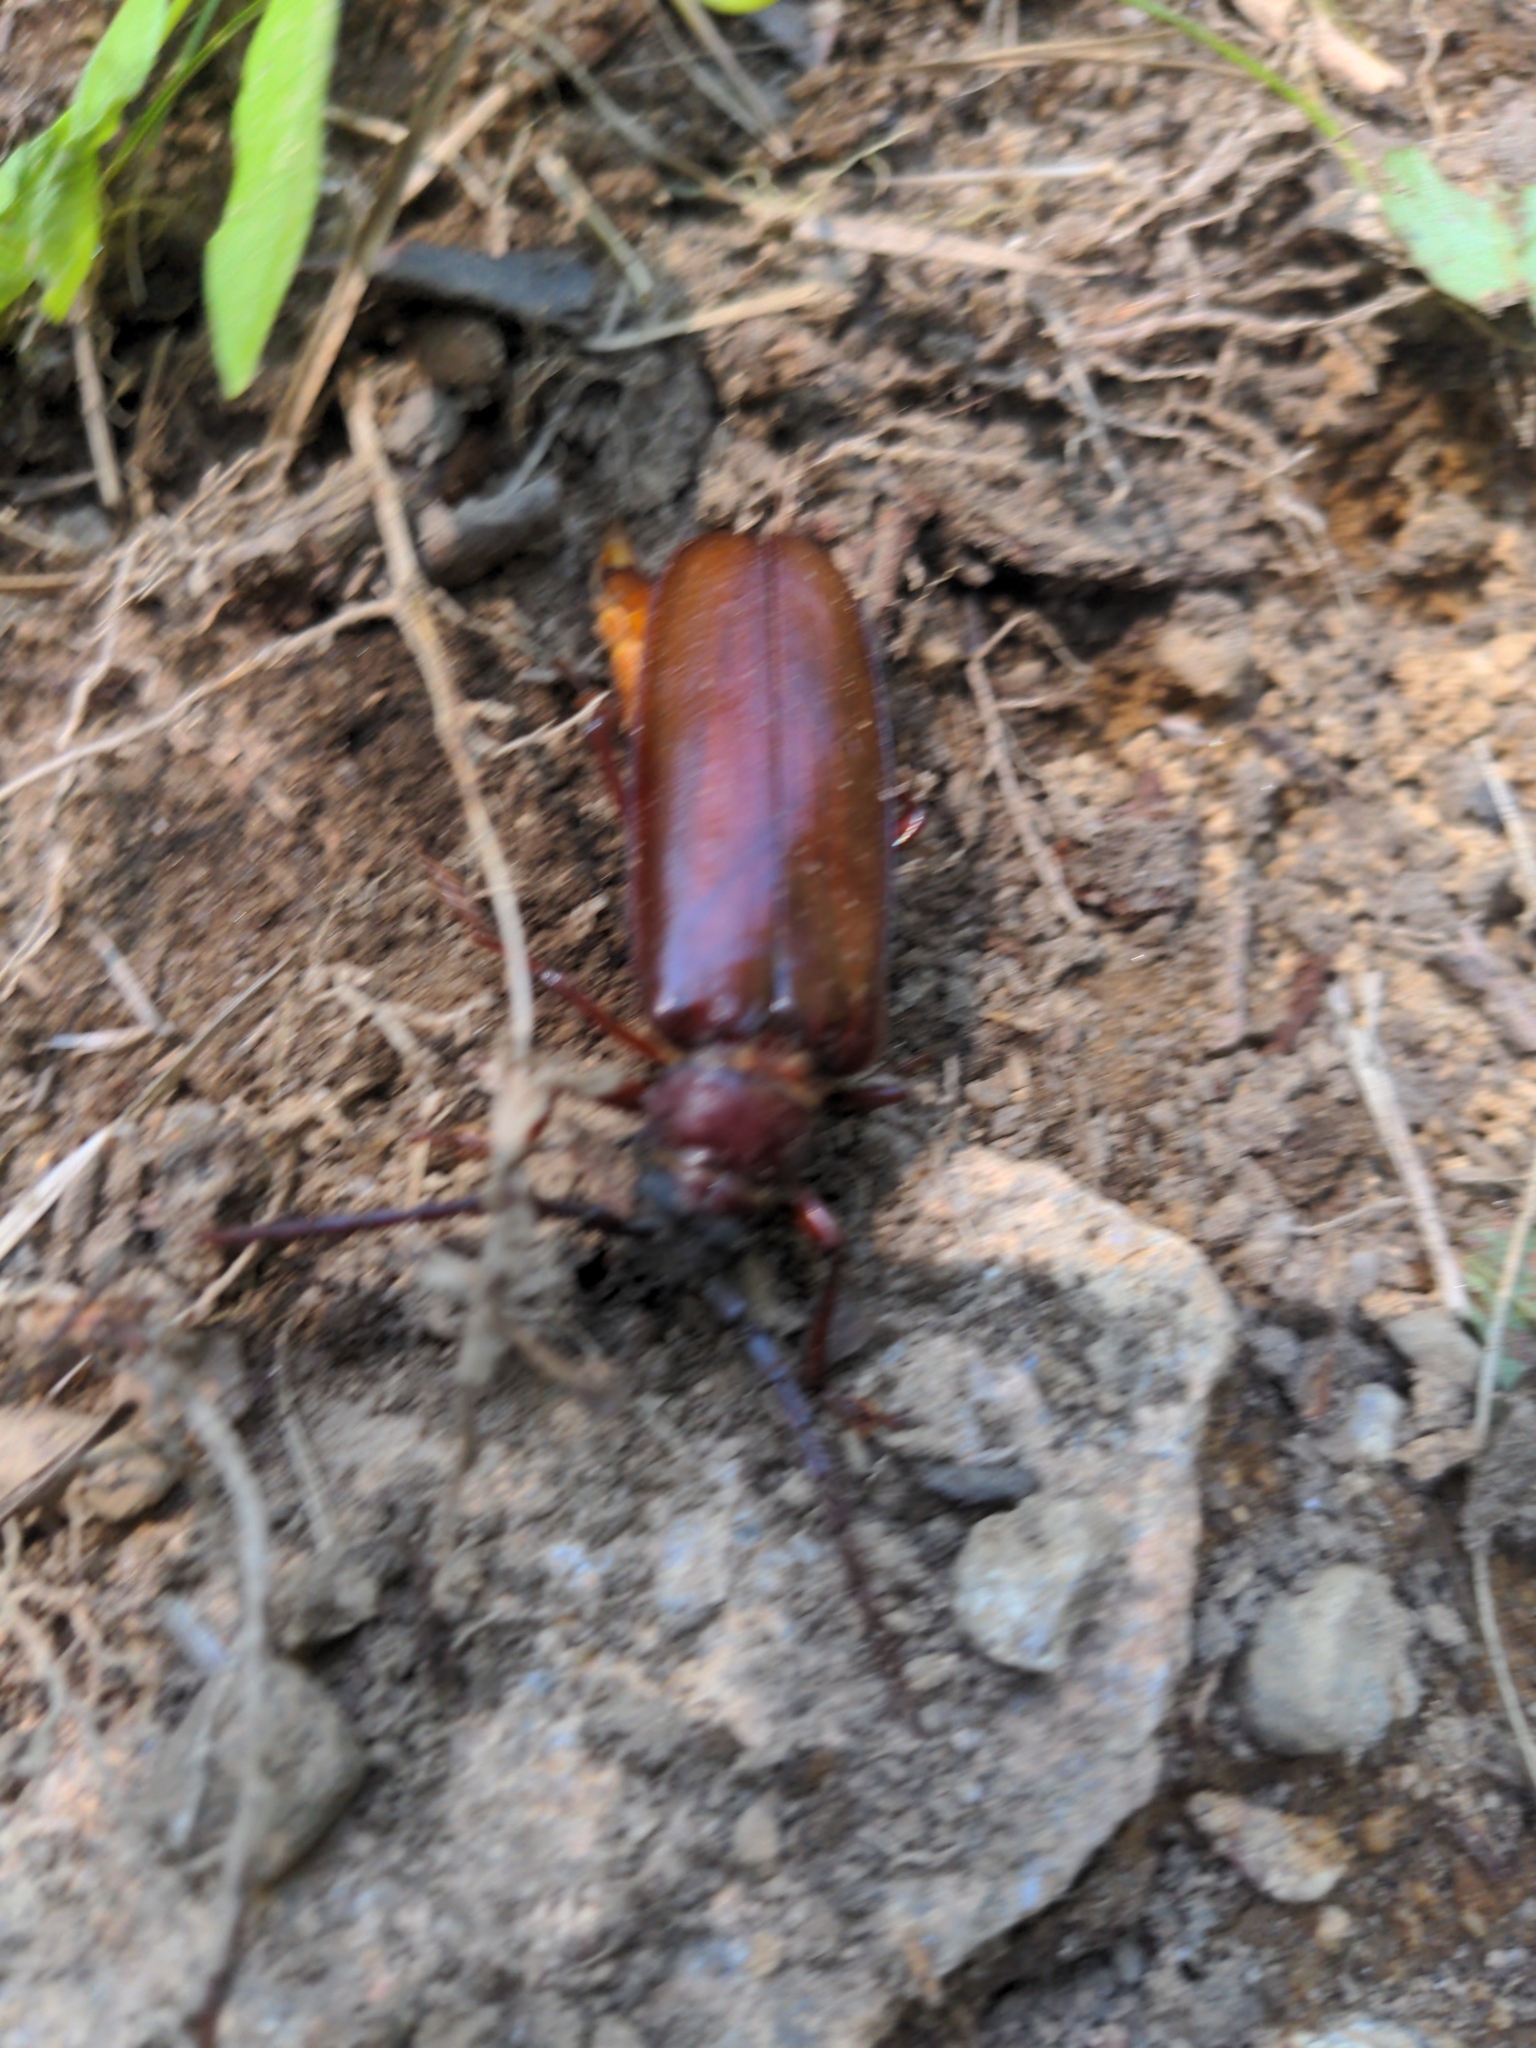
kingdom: Animalia
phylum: Arthropoda
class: Insecta
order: Coleoptera
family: Cerambycidae
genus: Orthosoma
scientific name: Orthosoma brunneum
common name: Brown prionid beetle
